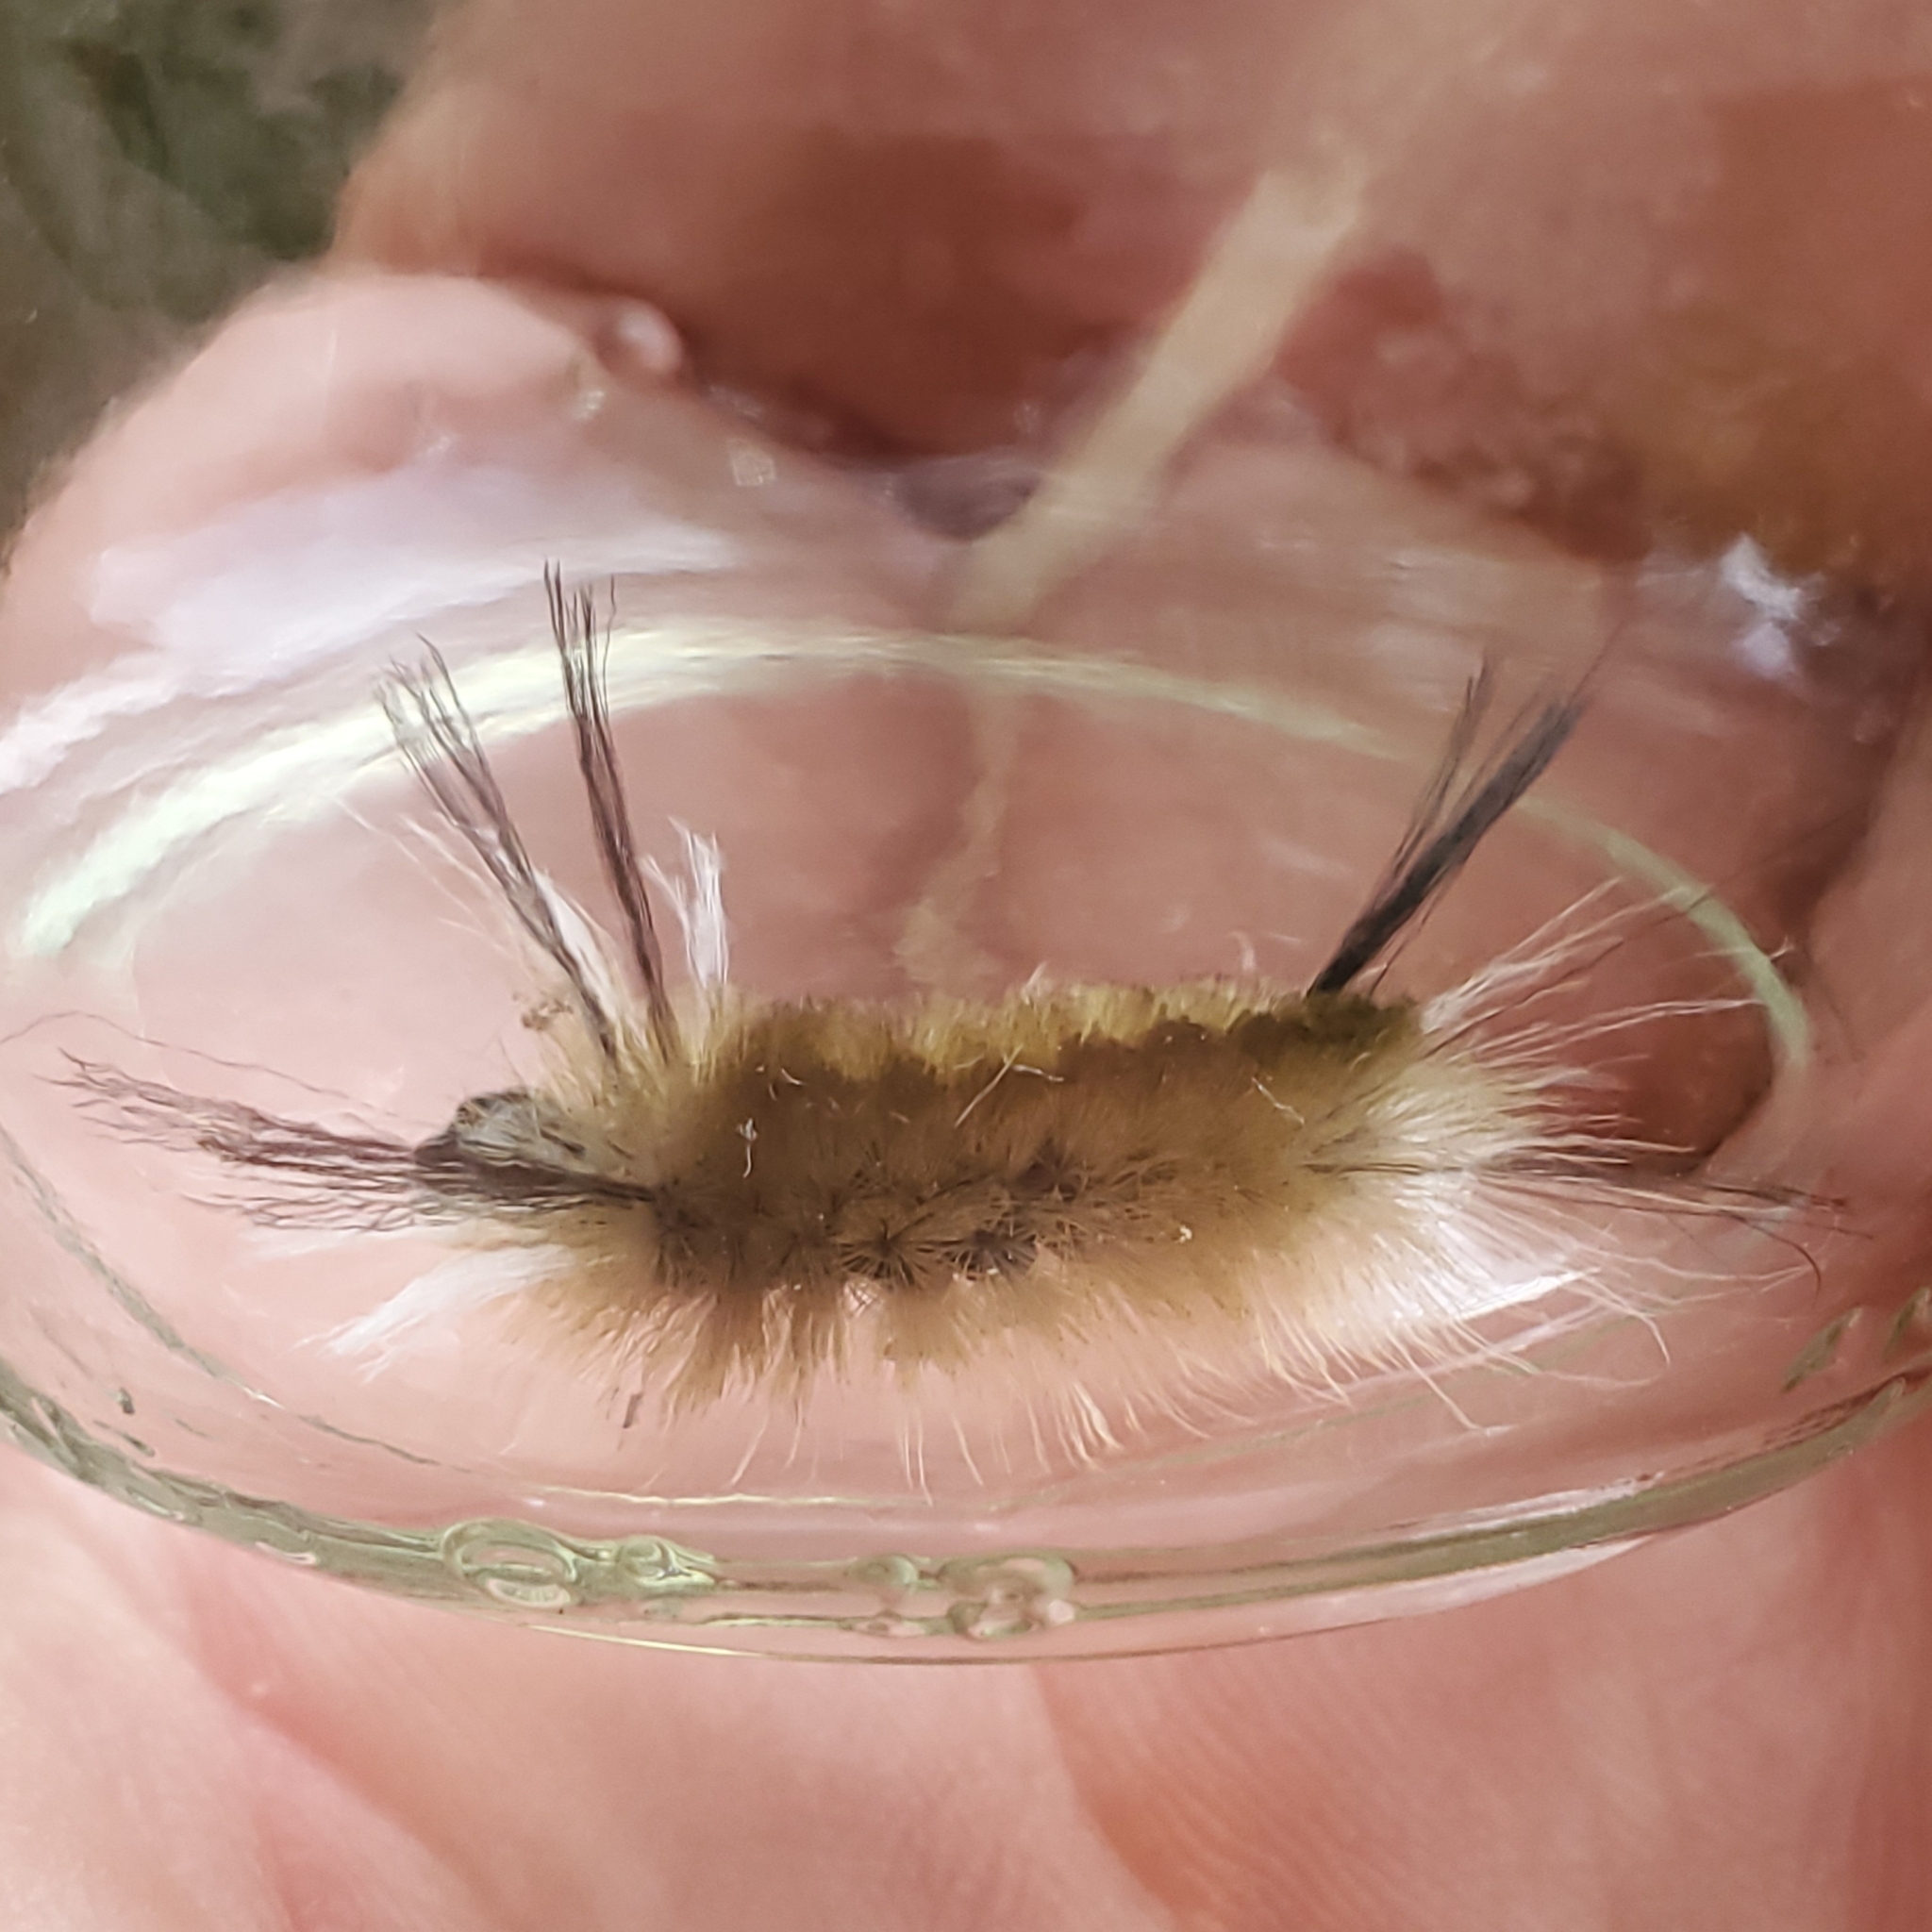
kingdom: Animalia
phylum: Arthropoda
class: Insecta
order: Lepidoptera
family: Erebidae
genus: Halysidota
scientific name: Halysidota tessellaris
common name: Banded tussock moth
